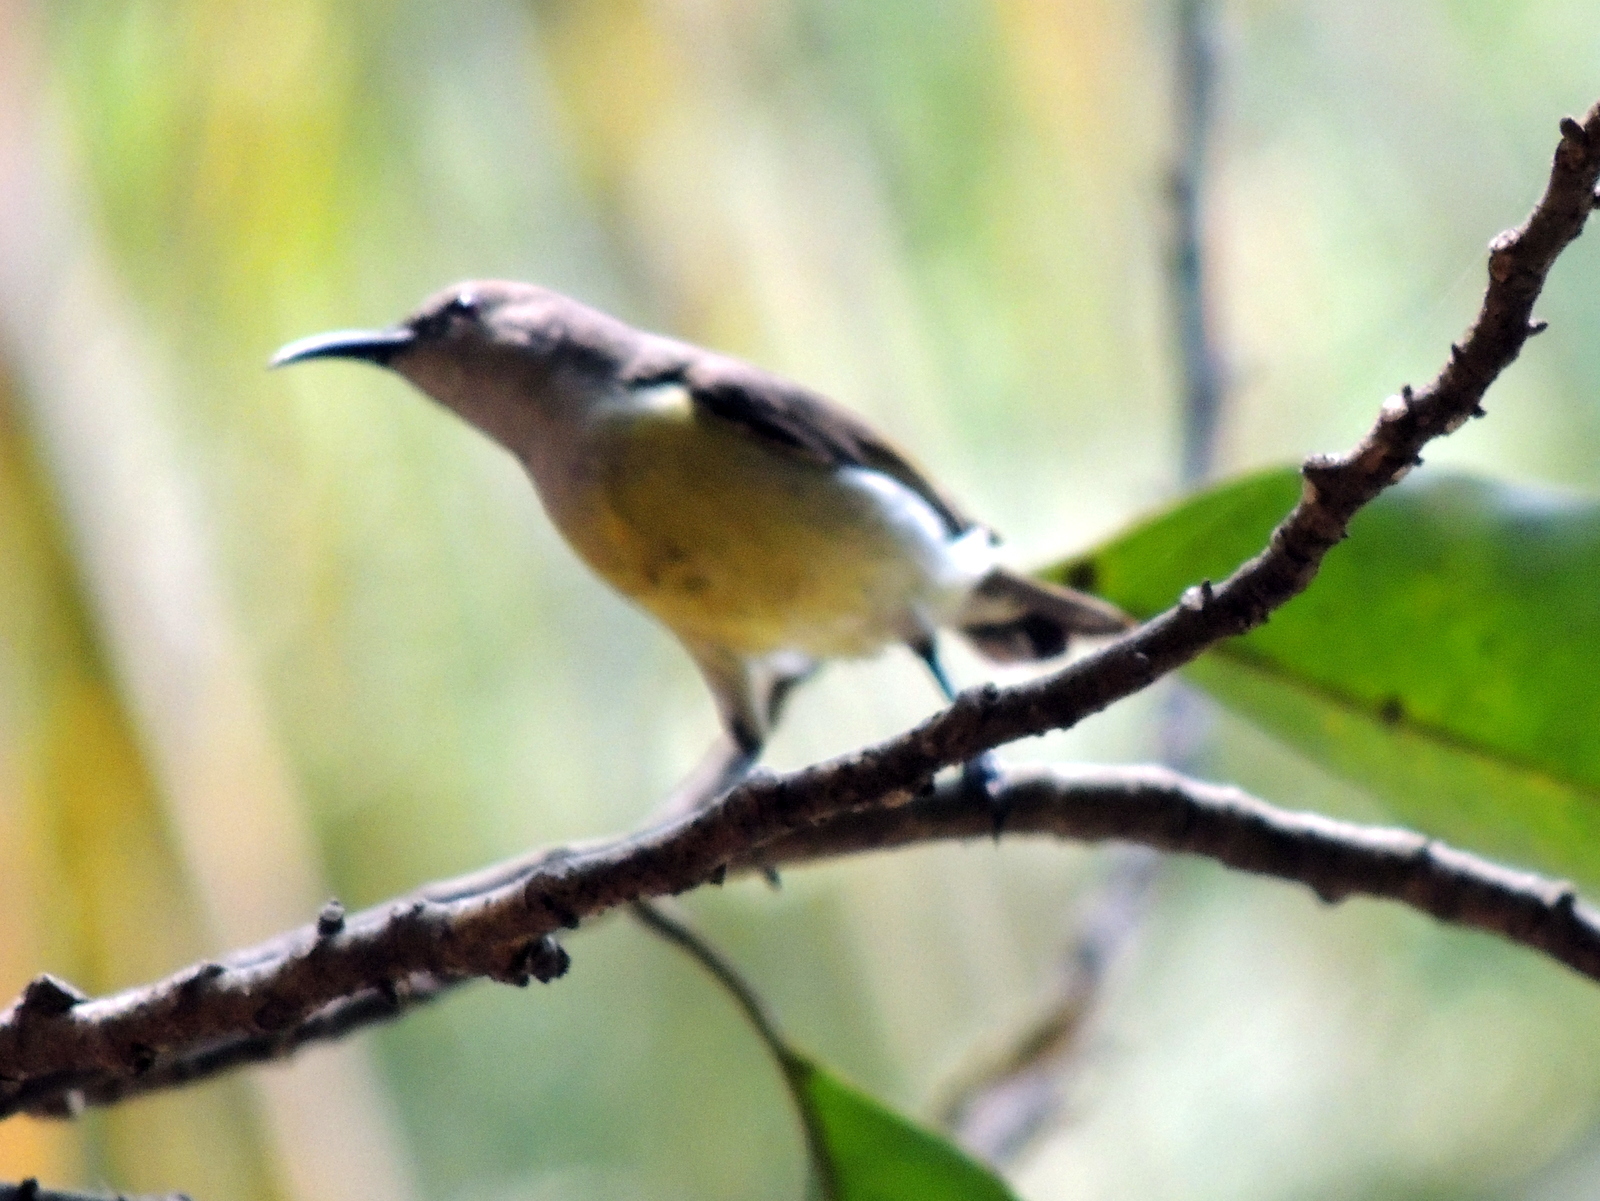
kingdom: Animalia
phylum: Chordata
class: Aves
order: Passeriformes
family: Nectariniidae
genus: Leptocoma
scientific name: Leptocoma zeylonica
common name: Purple-rumped sunbird
